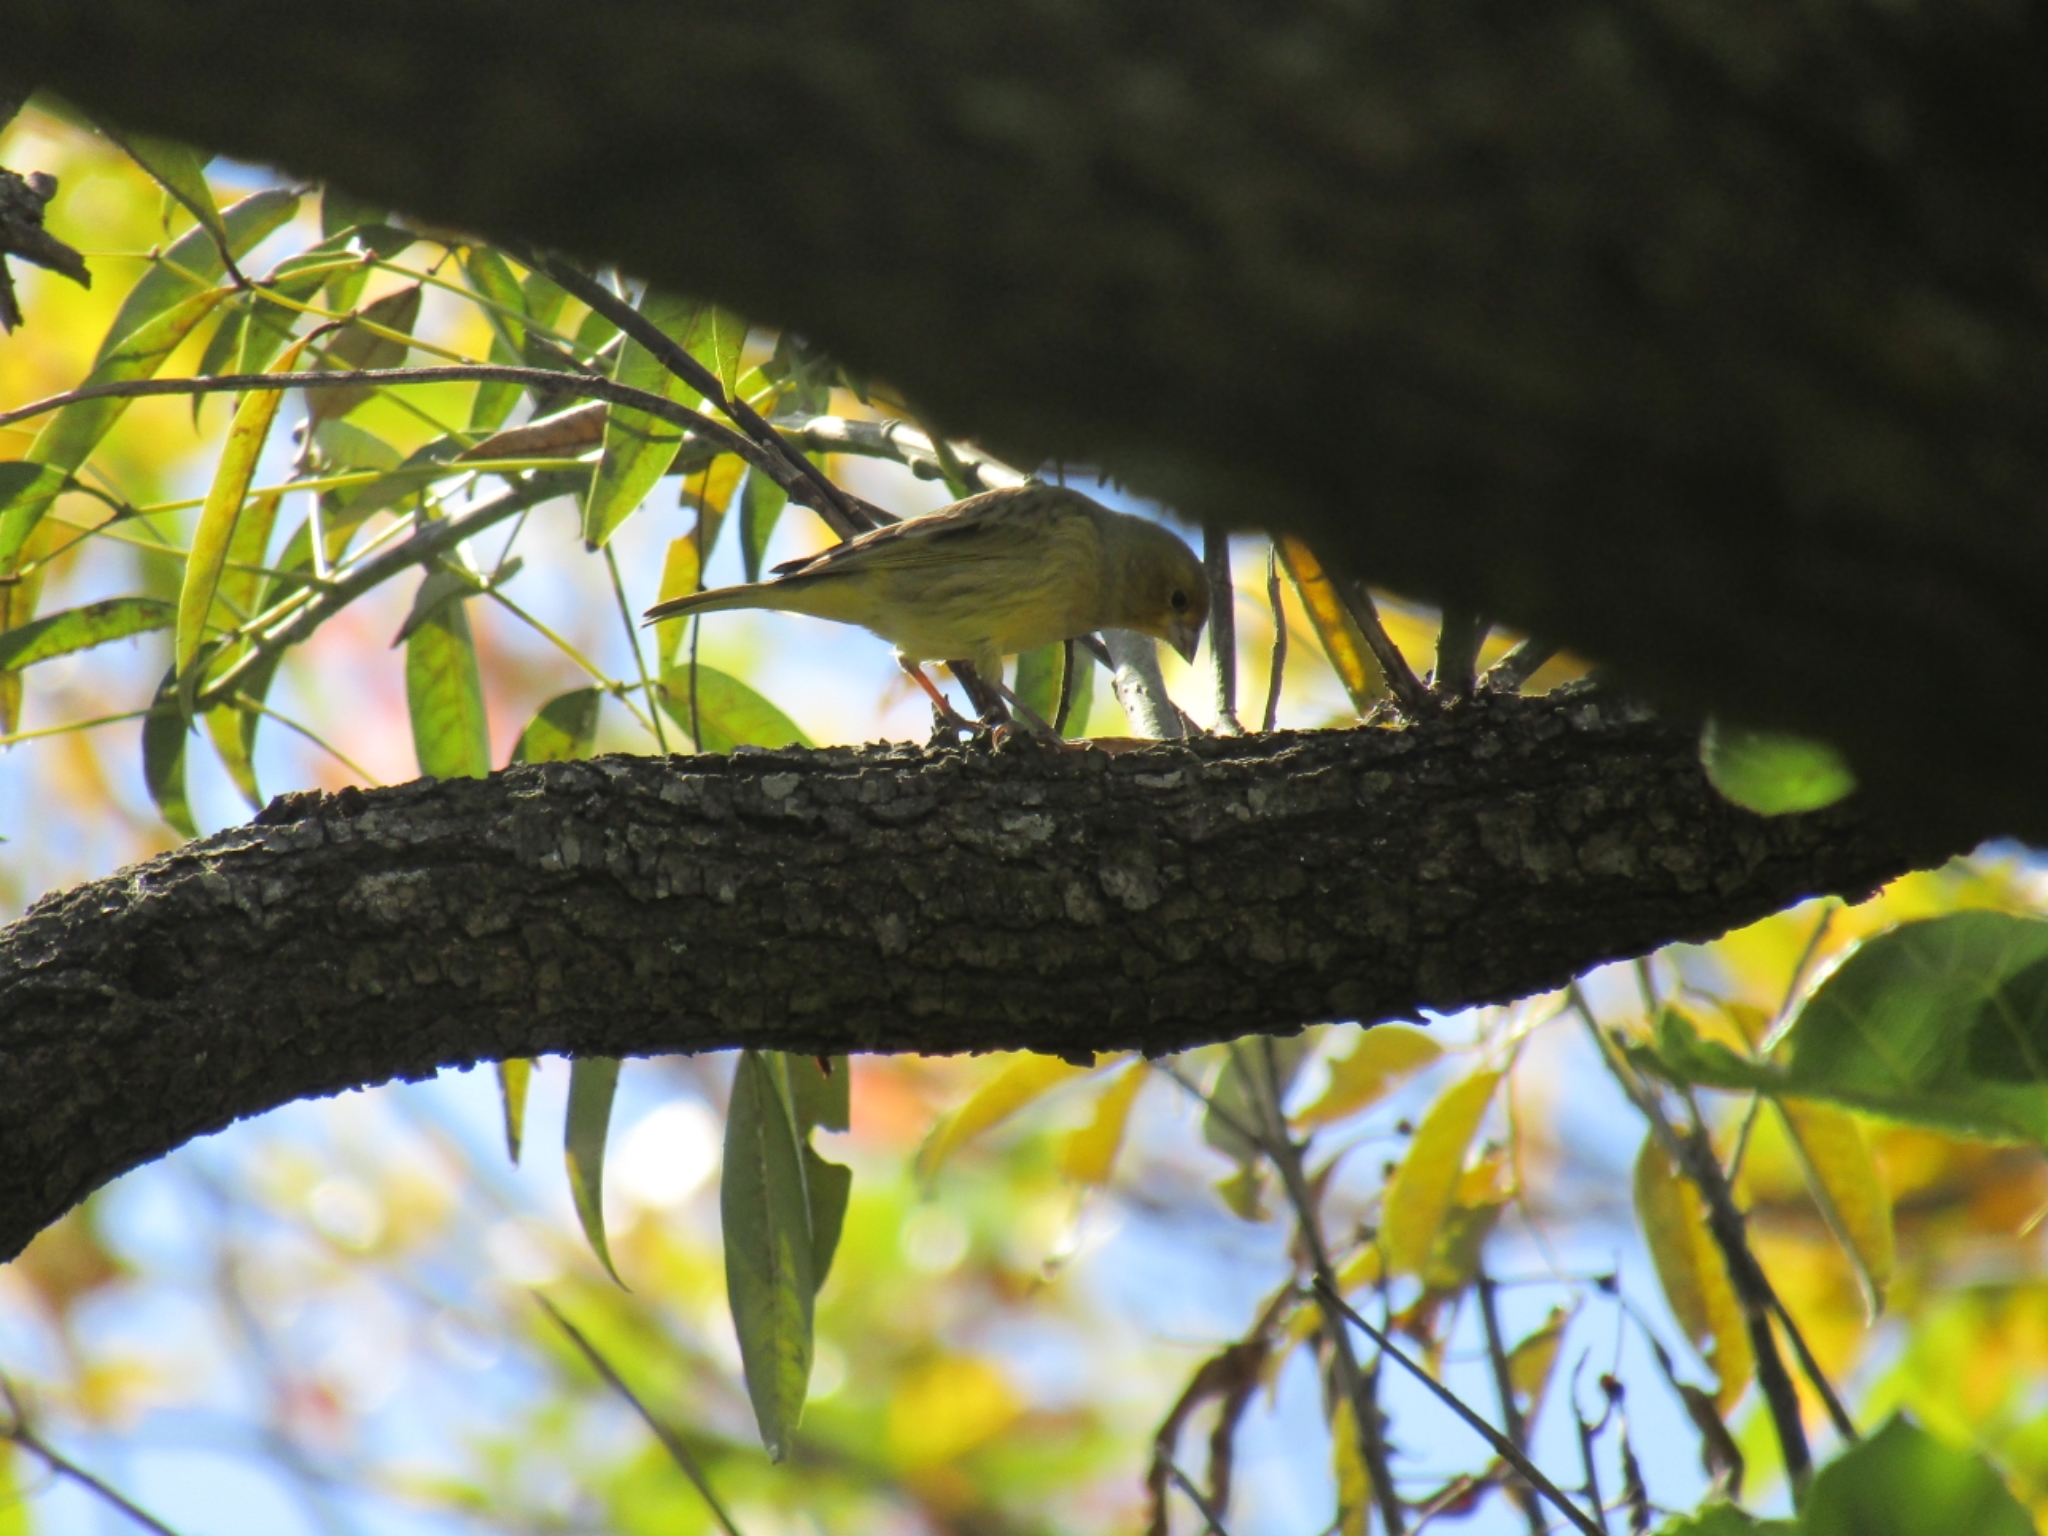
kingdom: Animalia
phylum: Chordata
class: Aves
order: Passeriformes
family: Thraupidae
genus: Sicalis
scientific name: Sicalis flaveola
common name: Saffron finch
